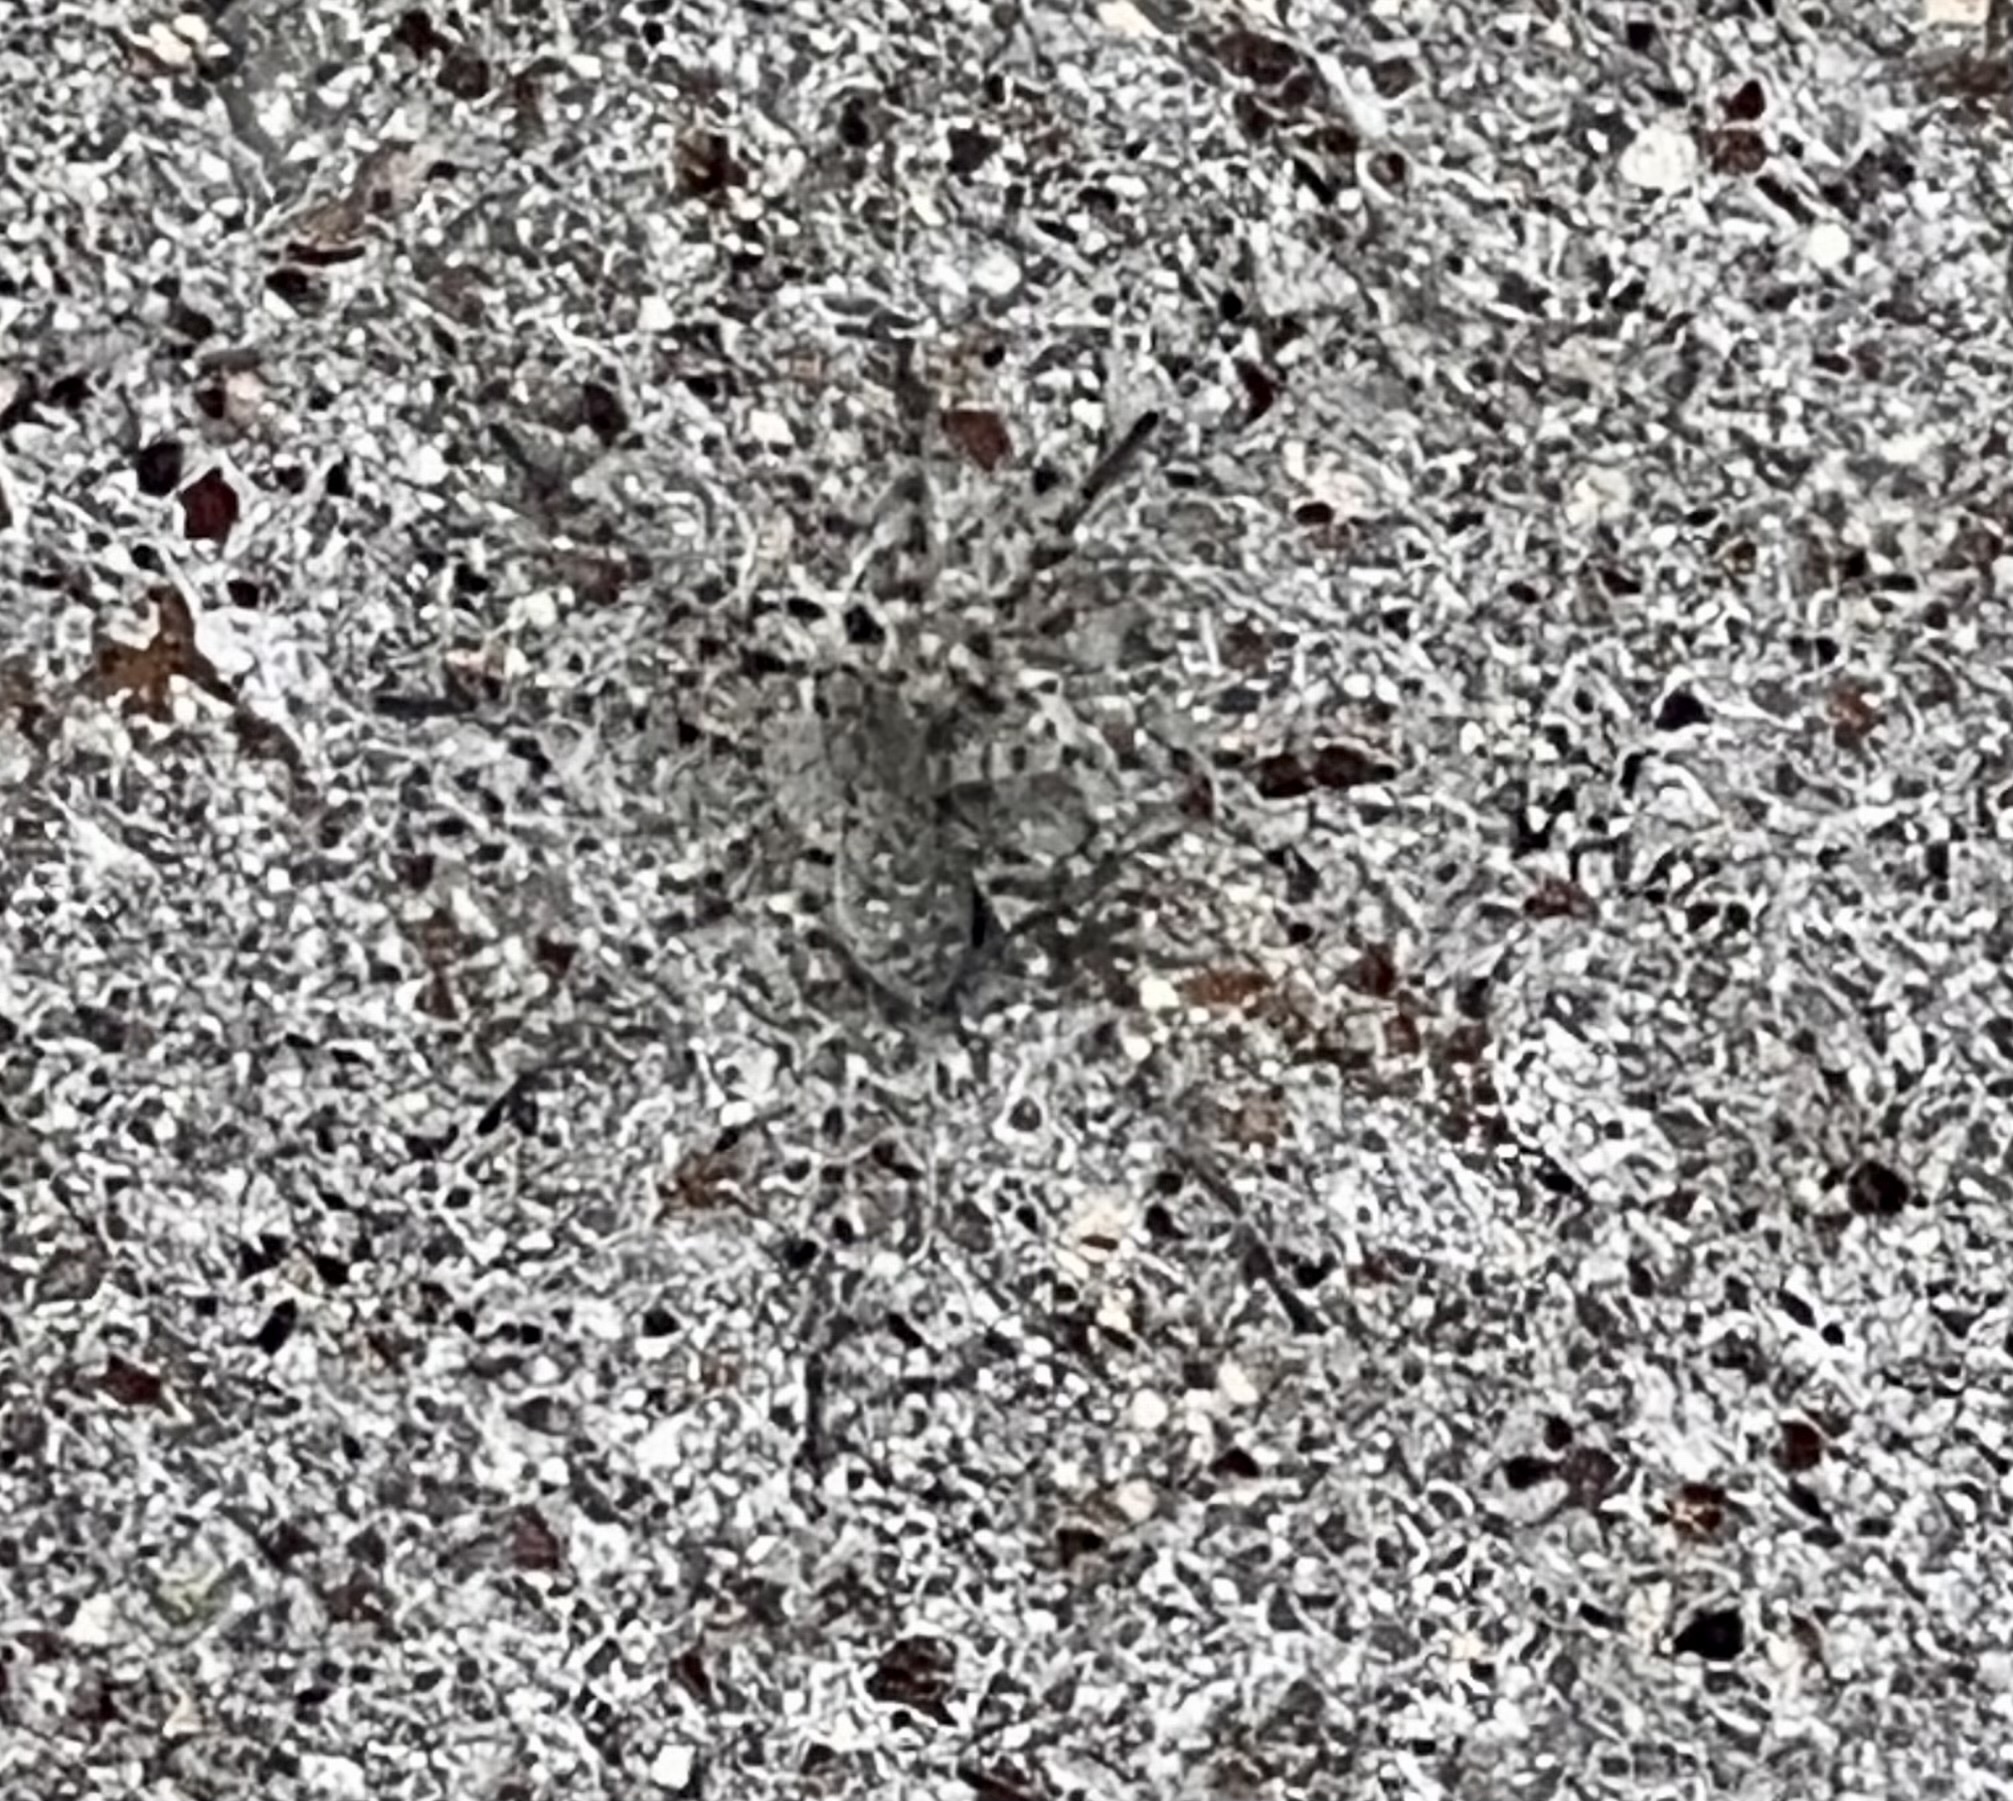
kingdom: Animalia
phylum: Arthropoda
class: Arachnida
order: Araneae
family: Lycosidae
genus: Pardosa
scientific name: Pardosa mercurialis
